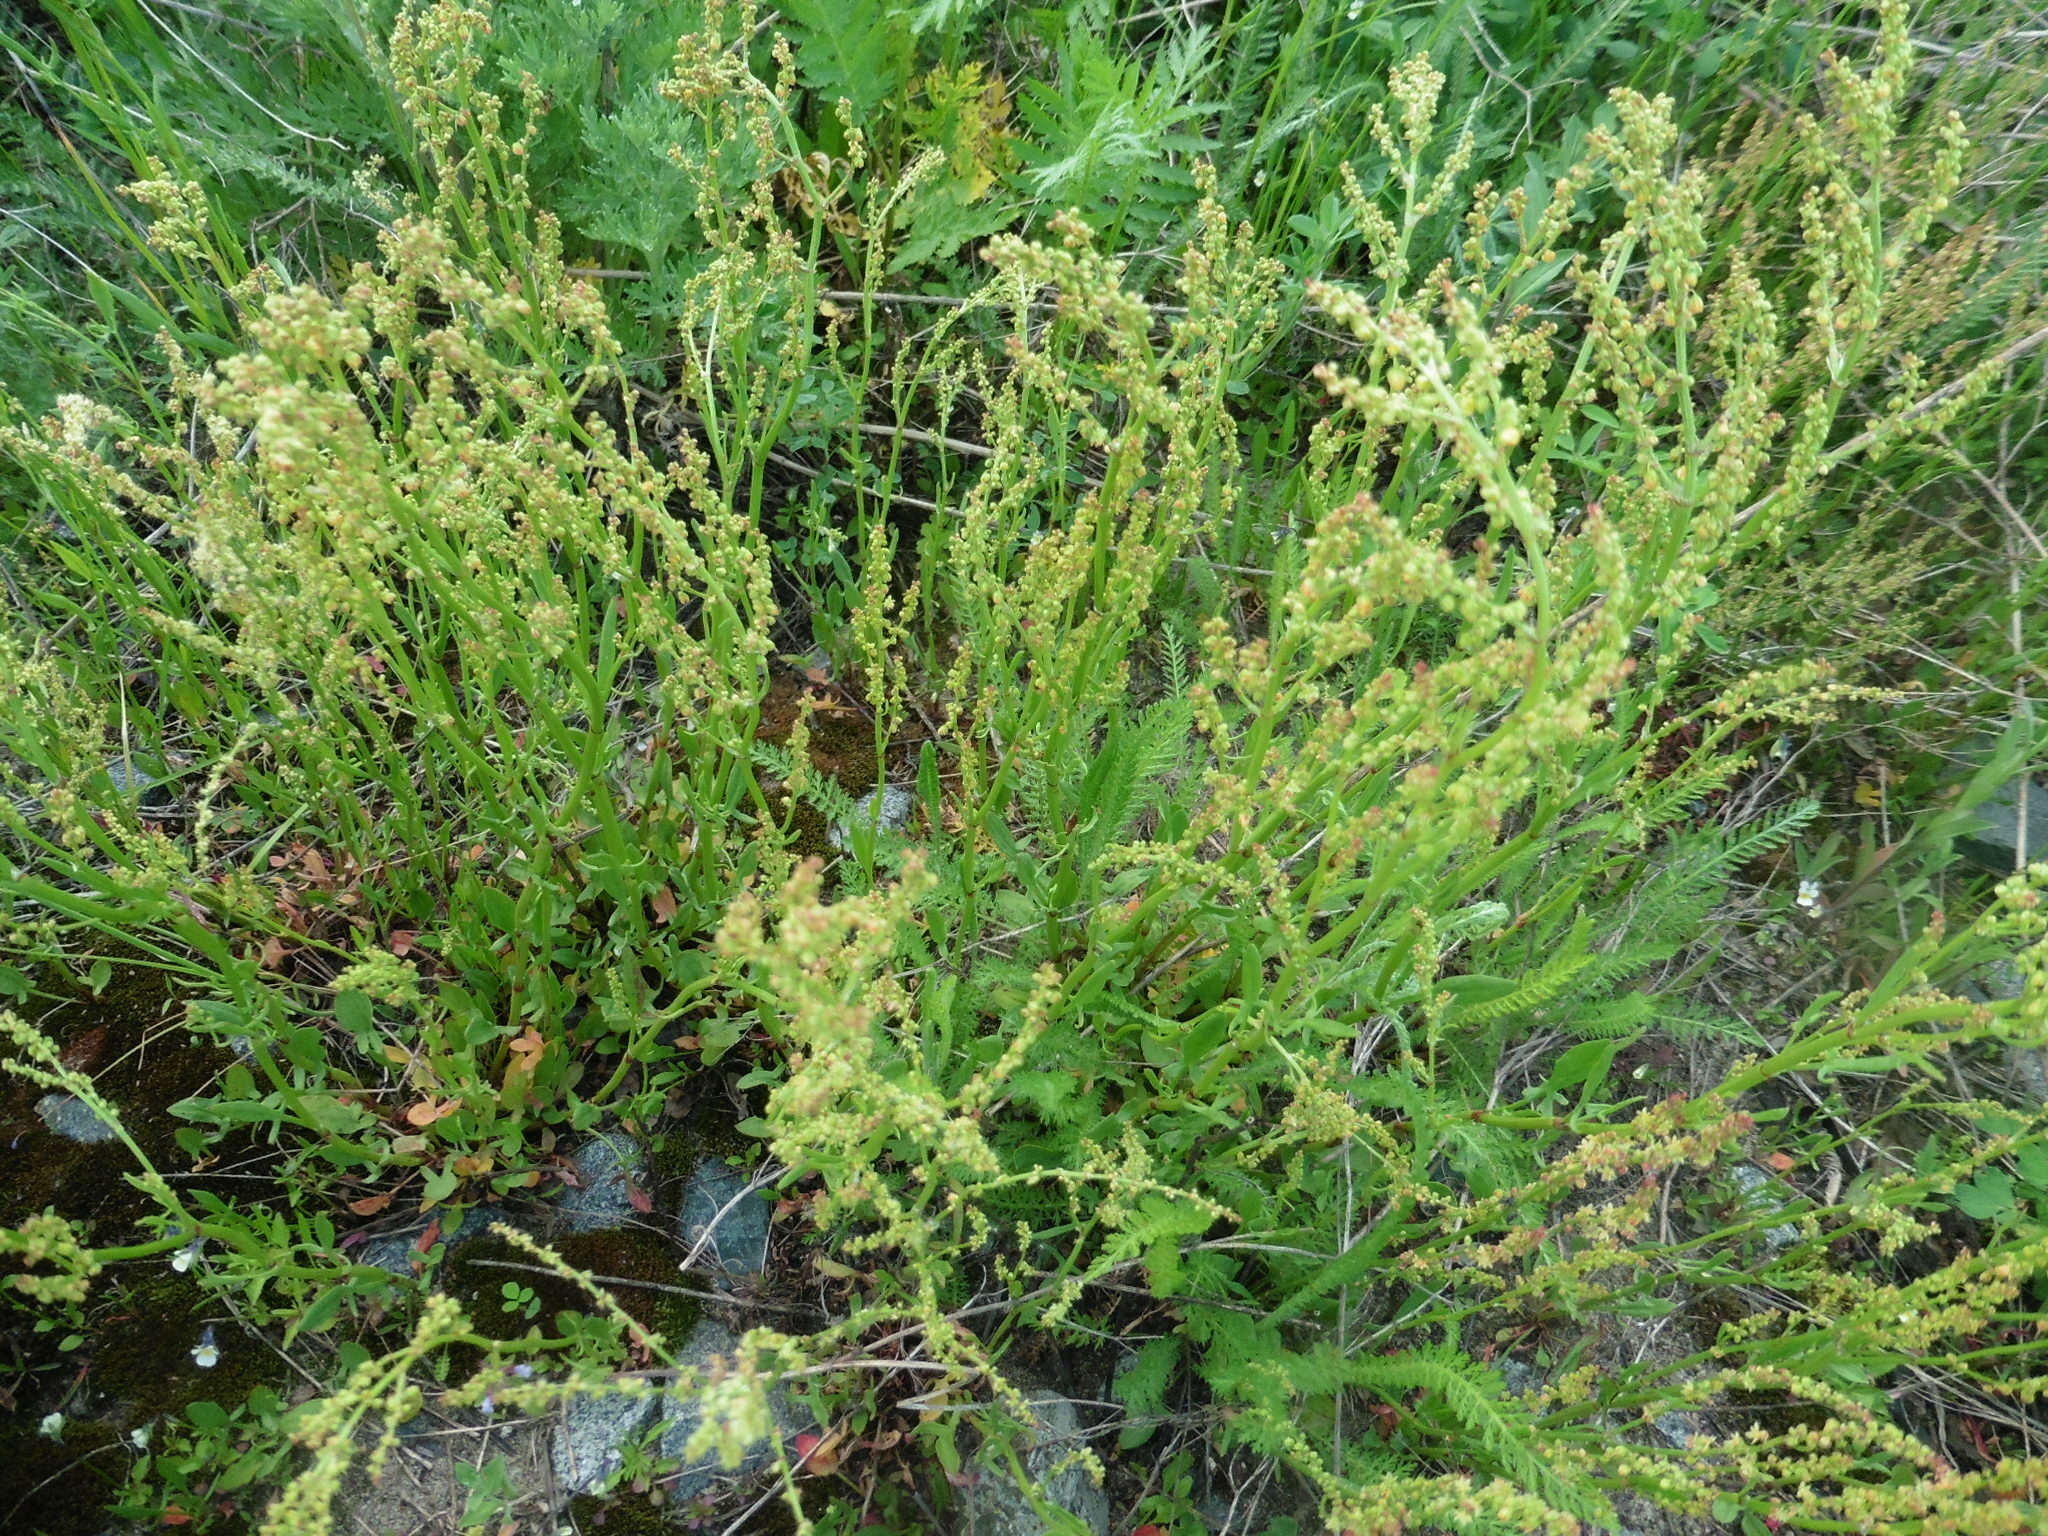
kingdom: Plantae
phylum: Tracheophyta
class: Magnoliopsida
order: Caryophyllales
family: Polygonaceae
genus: Rumex
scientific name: Rumex acetosella
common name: Common sheep sorrel
